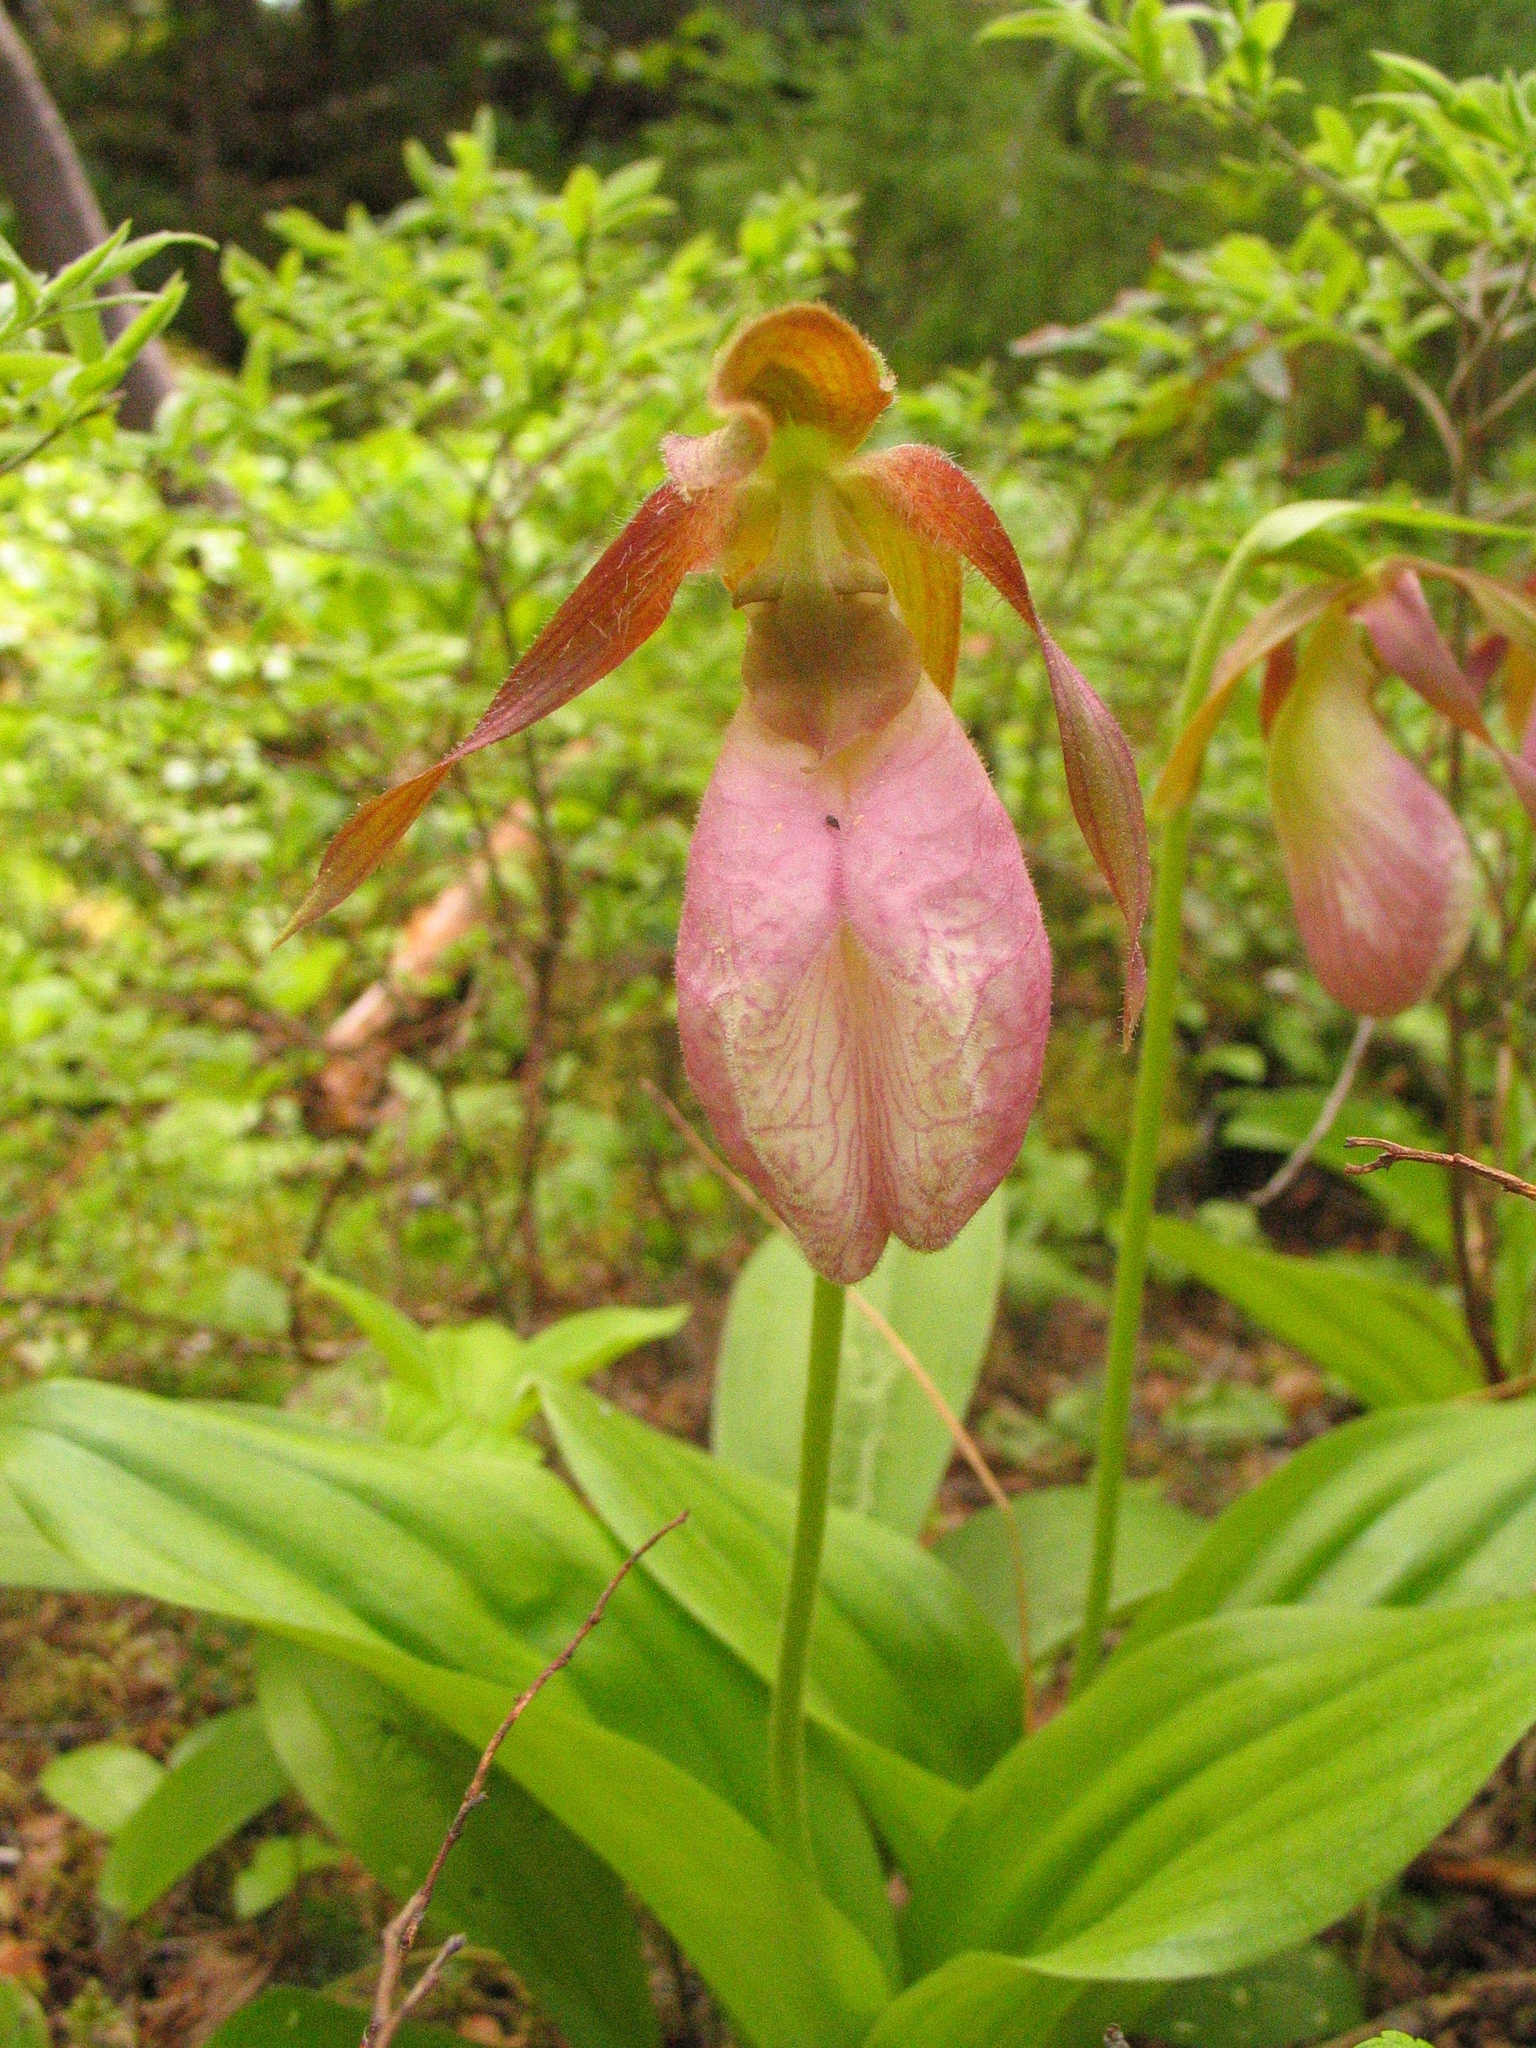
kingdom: Plantae
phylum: Tracheophyta
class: Liliopsida
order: Asparagales
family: Orchidaceae
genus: Cypripedium
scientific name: Cypripedium acaule
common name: Pink lady's-slipper
